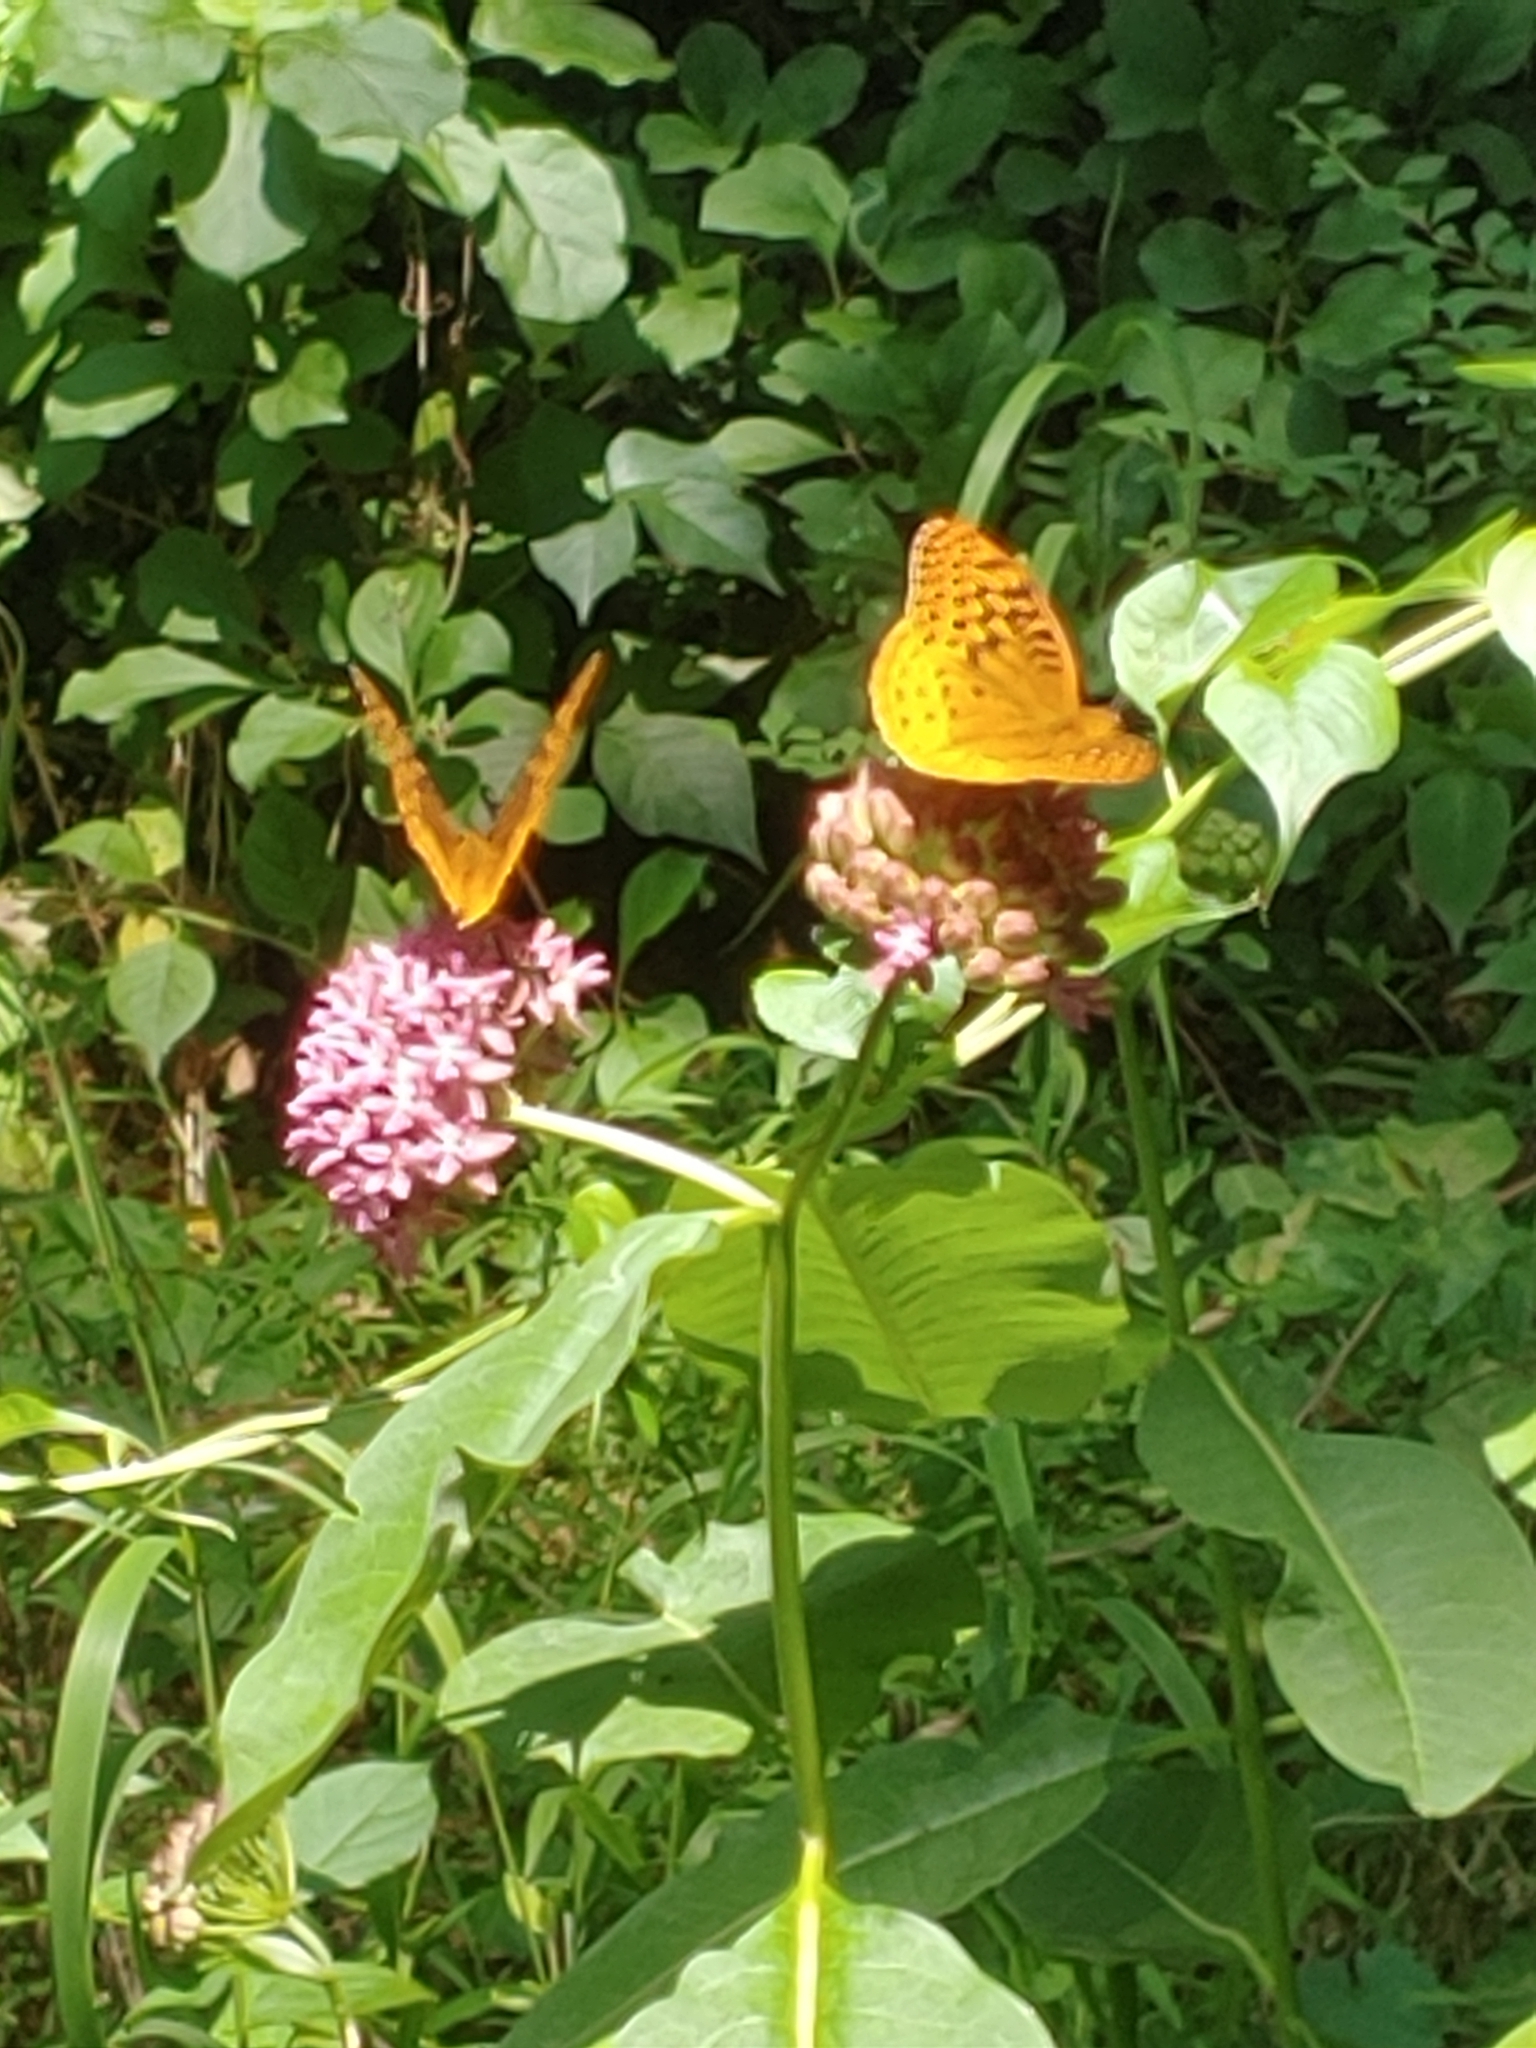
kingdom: Animalia
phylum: Arthropoda
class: Insecta
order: Lepidoptera
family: Nymphalidae
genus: Speyeria
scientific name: Speyeria cybele
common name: Great spangled fritillary
